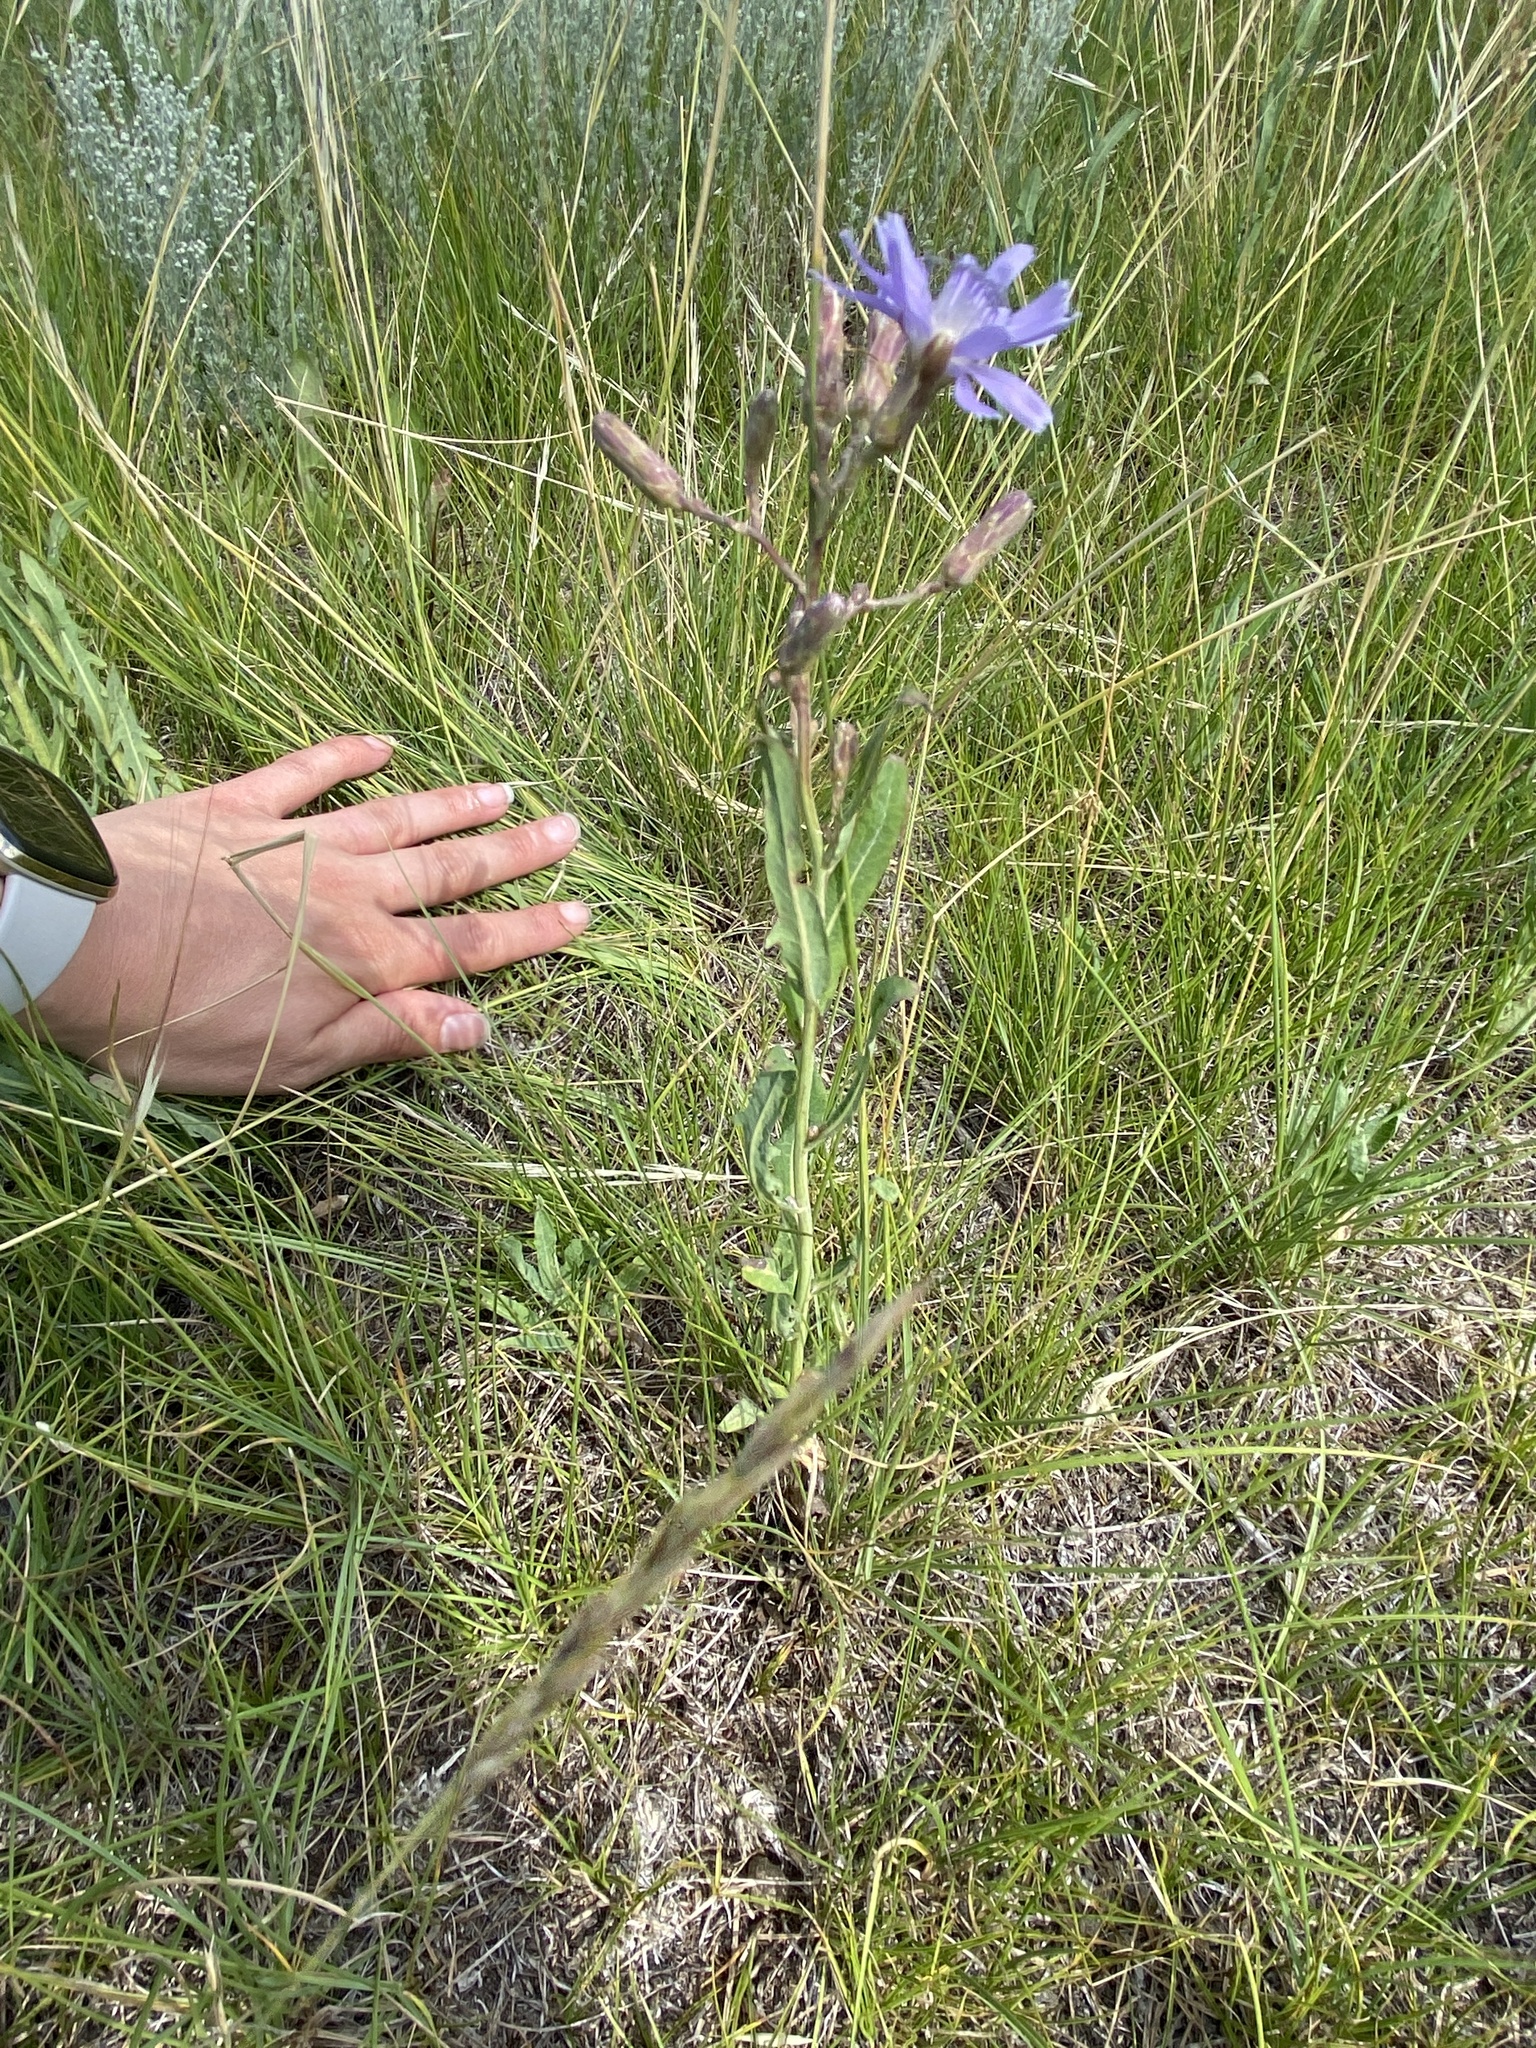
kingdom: Plantae
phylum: Tracheophyta
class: Magnoliopsida
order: Asterales
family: Asteraceae
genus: Lactuca
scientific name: Lactuca pulchella
